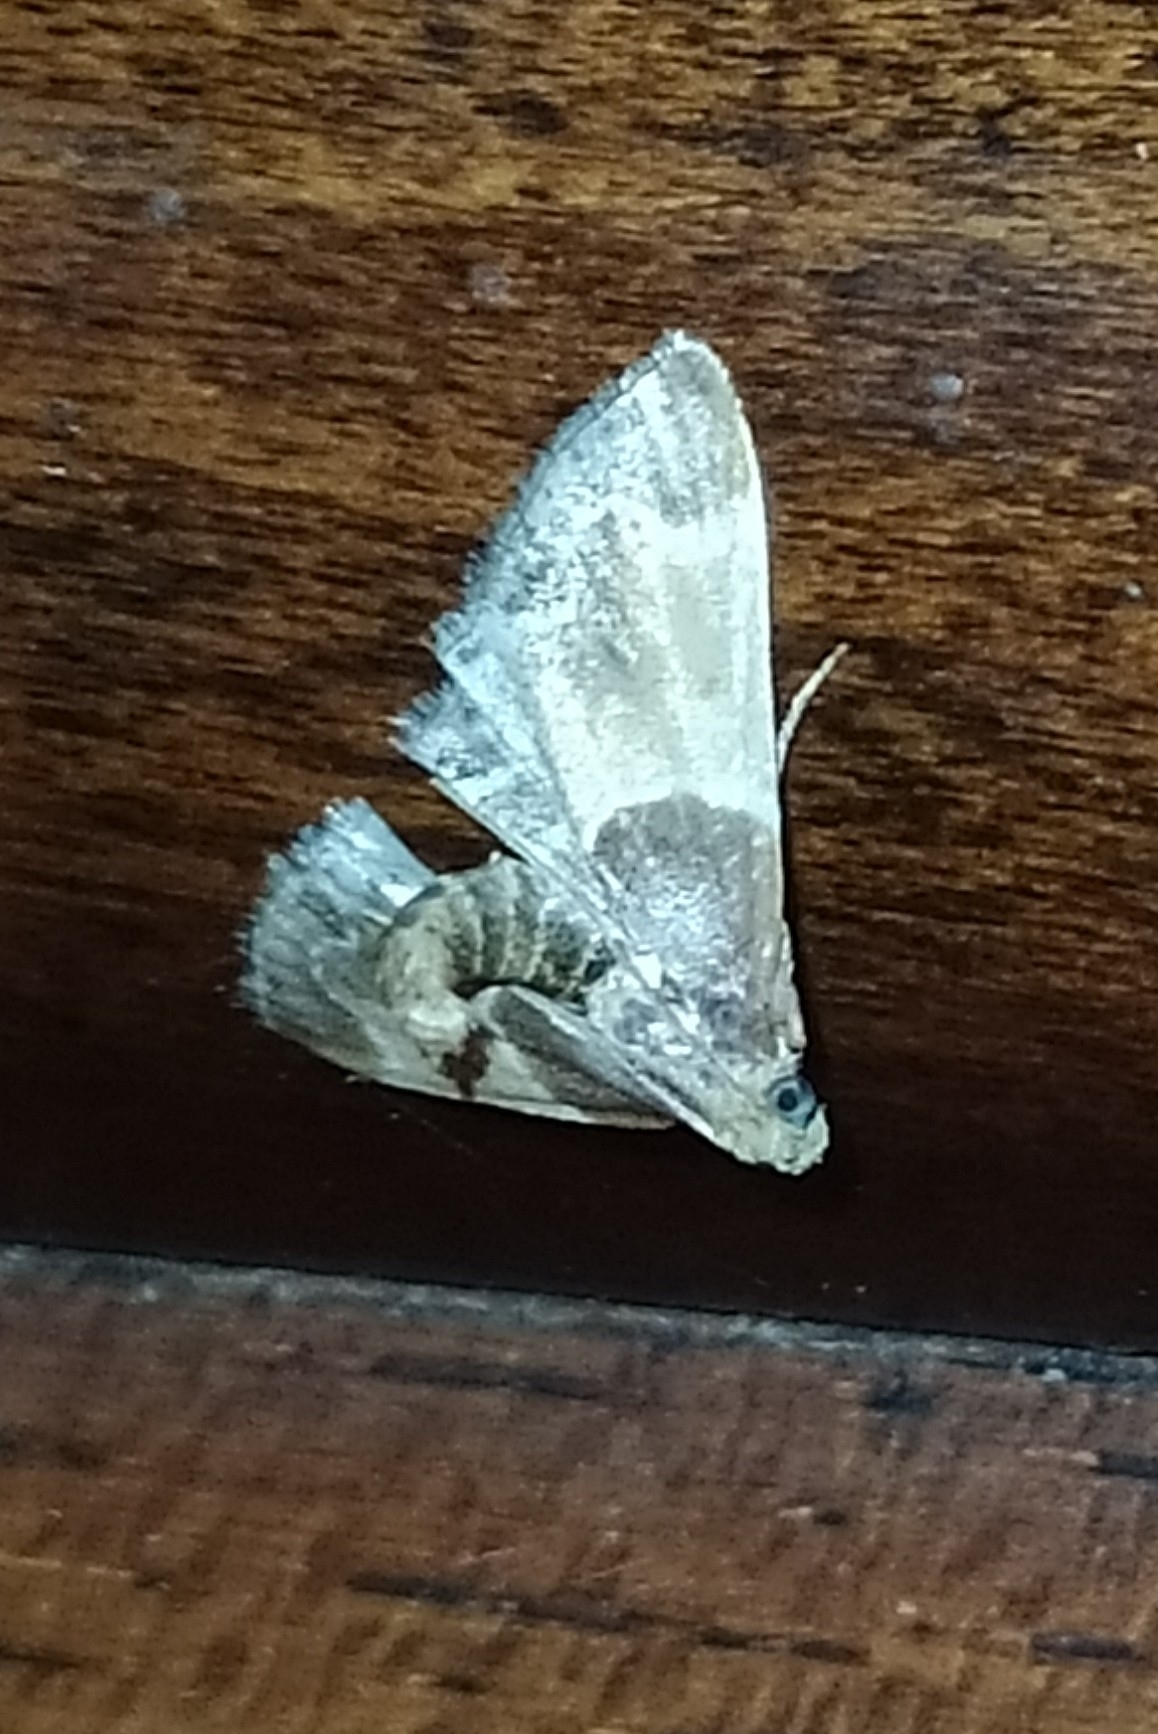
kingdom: Animalia
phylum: Arthropoda
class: Insecta
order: Lepidoptera
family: Pyralidae
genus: Pyralis
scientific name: Pyralis farinalis
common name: Meal moth
